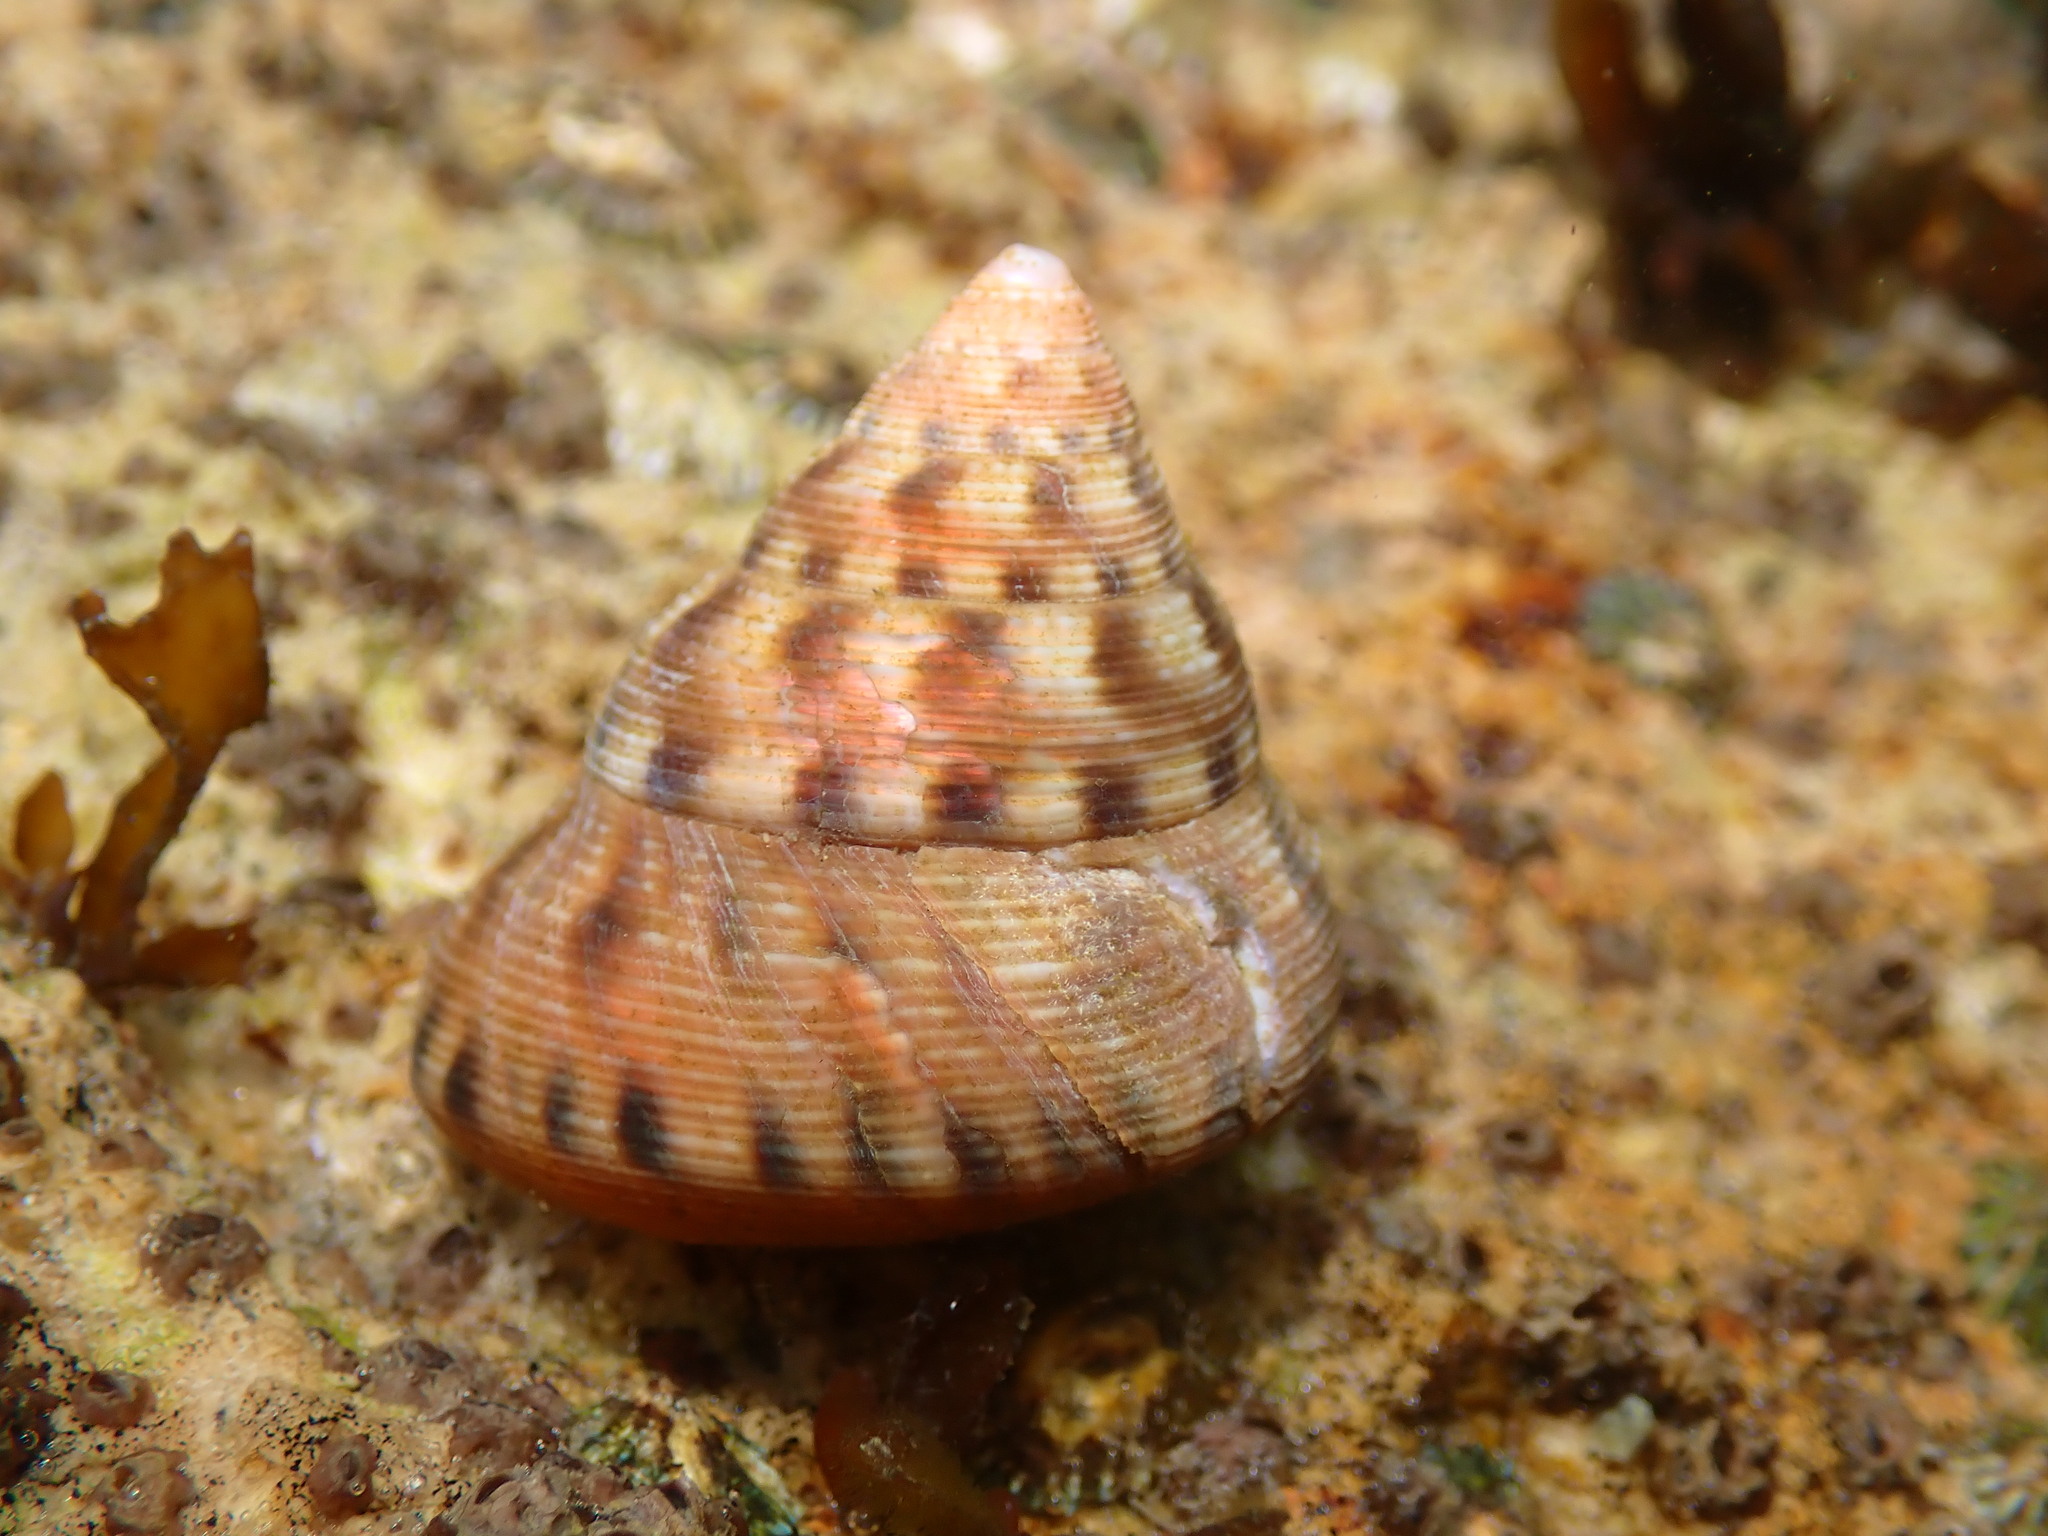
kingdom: Animalia
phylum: Mollusca
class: Gastropoda
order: Trochida
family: Calliostomatidae
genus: Calliostoma
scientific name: Calliostoma gloriosum
